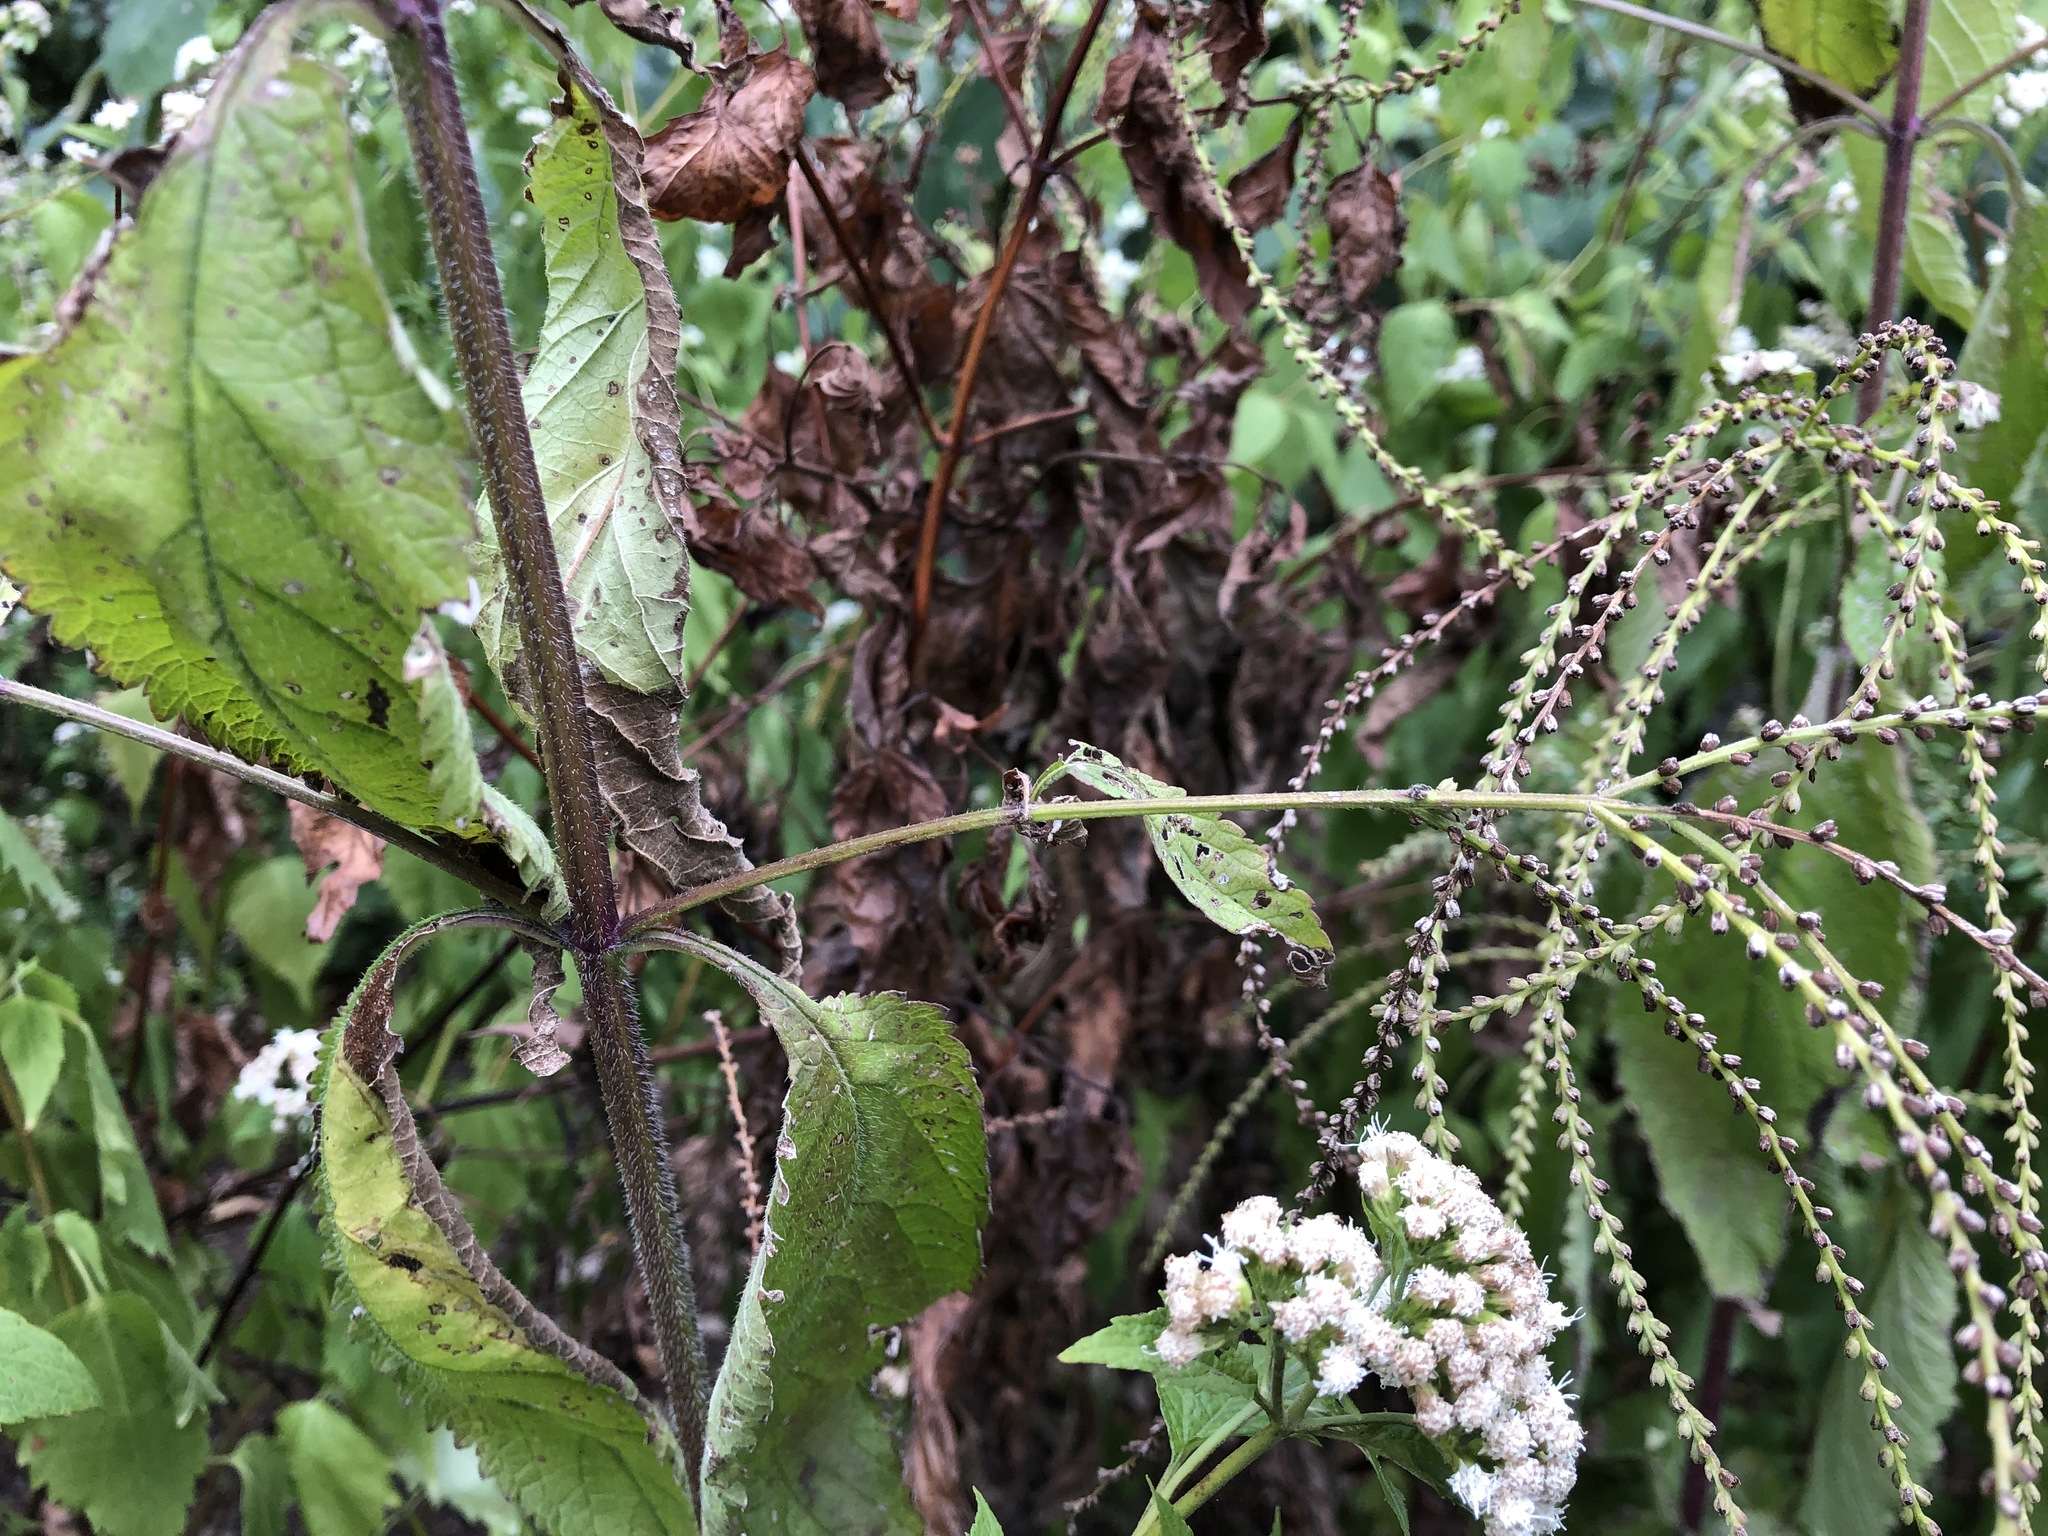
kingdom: Plantae
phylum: Tracheophyta
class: Magnoliopsida
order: Lamiales
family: Verbenaceae
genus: Verbena
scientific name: Verbena urticifolia
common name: Nettle-leaved vervain
